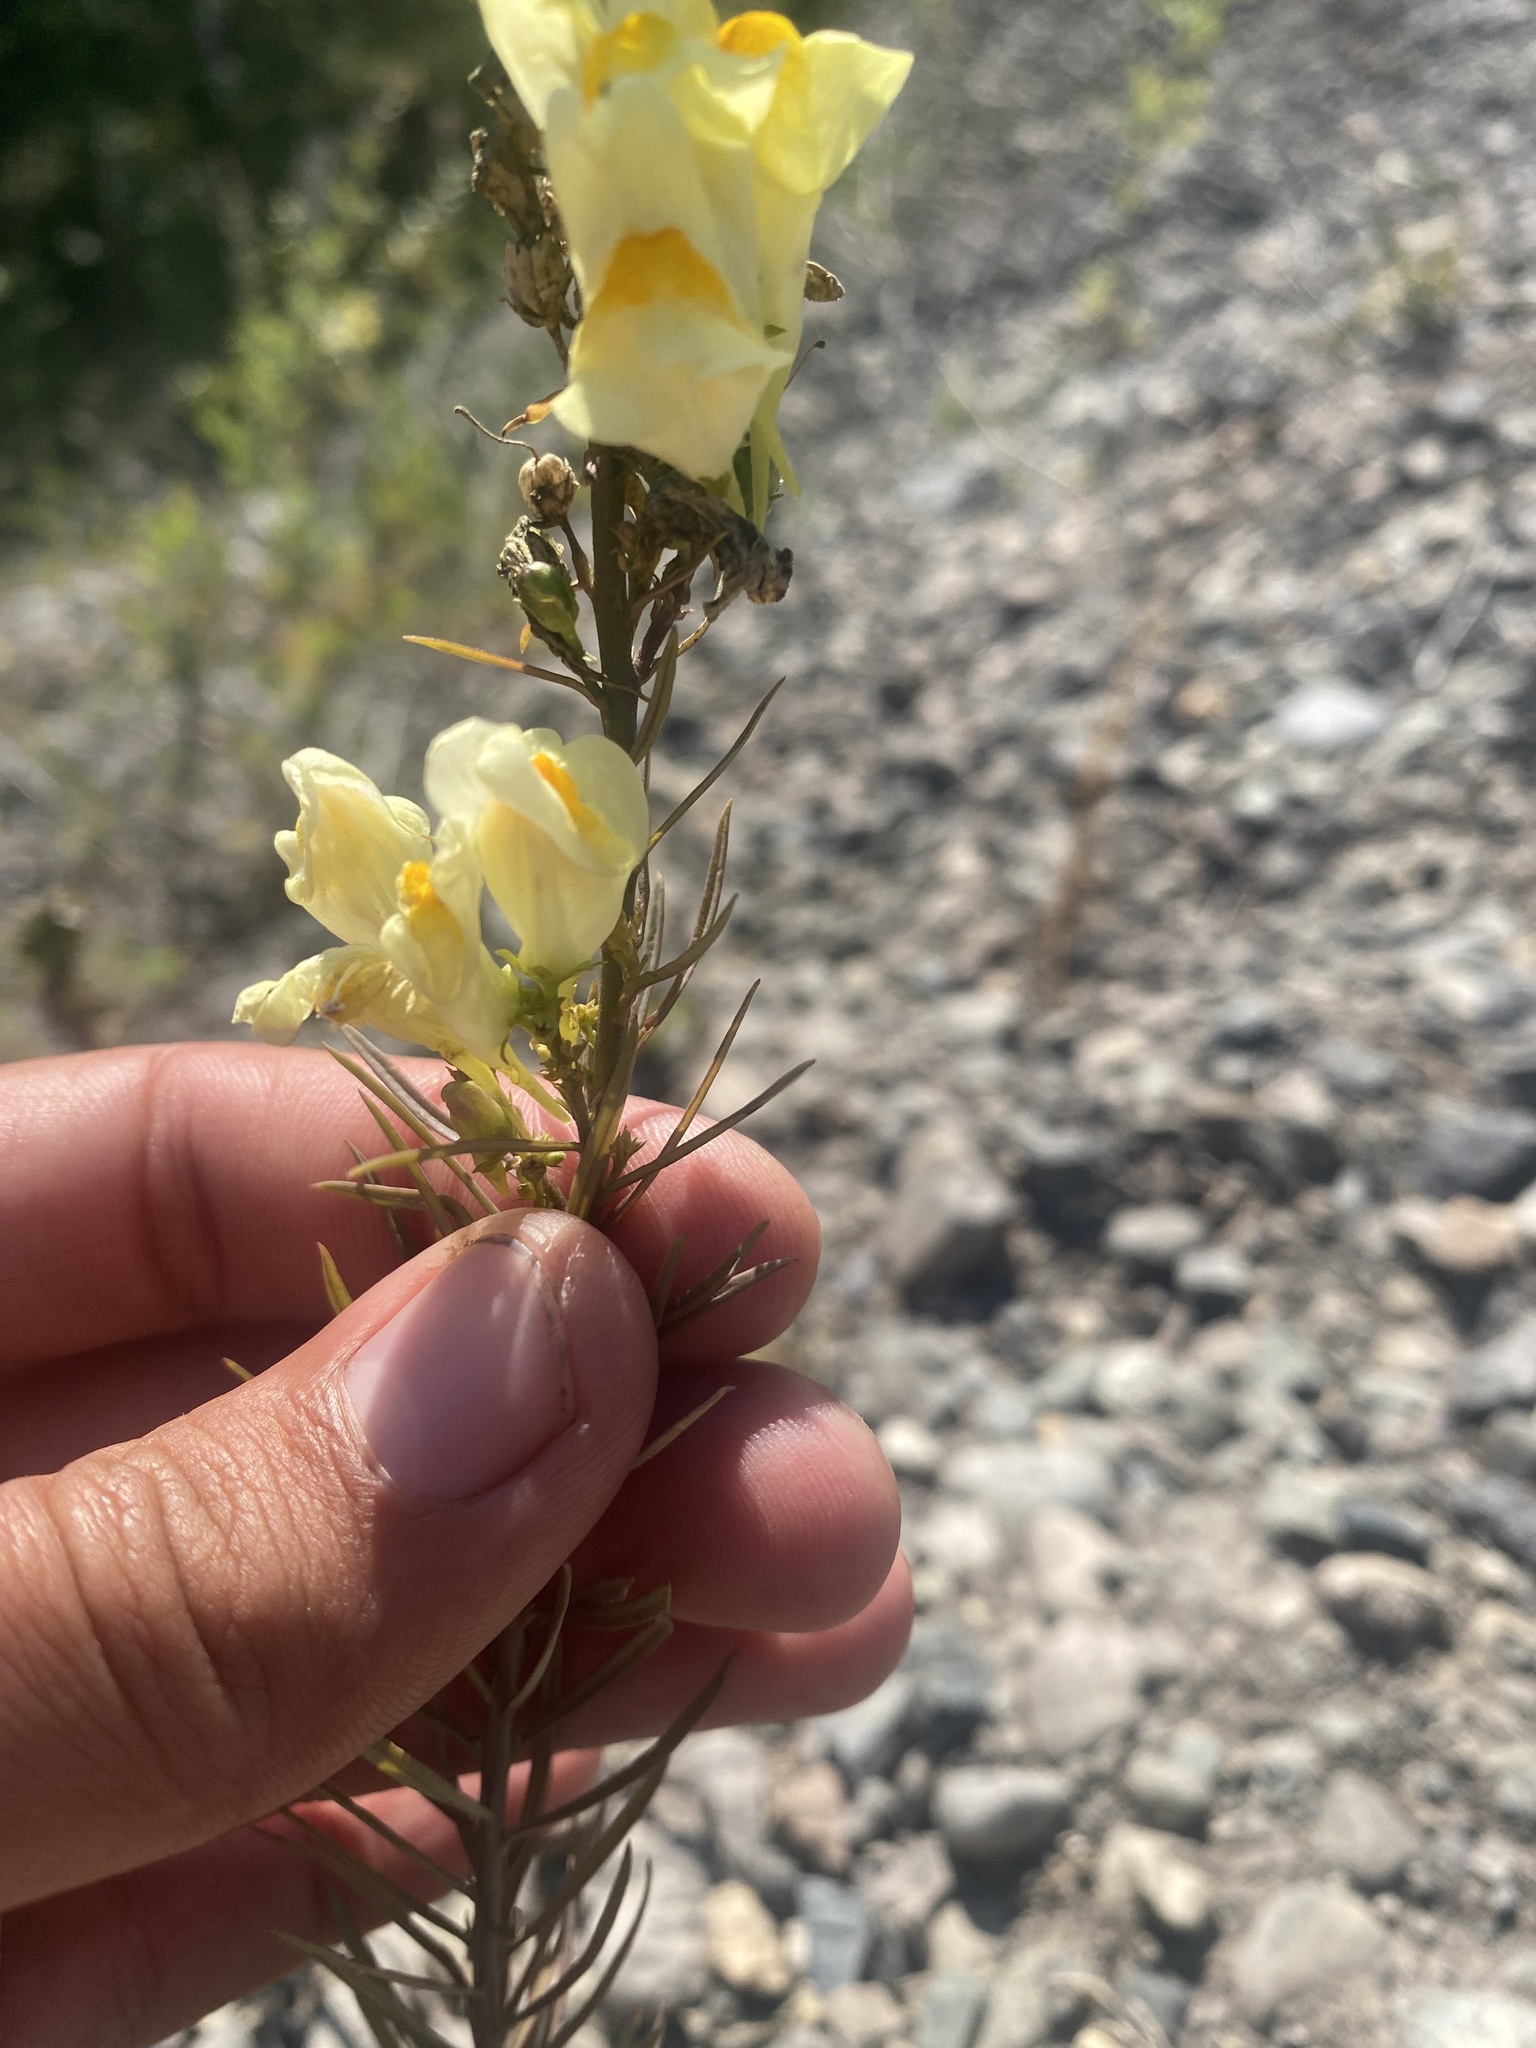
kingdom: Plantae
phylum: Tracheophyta
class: Magnoliopsida
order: Lamiales
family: Plantaginaceae
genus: Linaria
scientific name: Linaria vulgaris
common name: Butter and eggs
